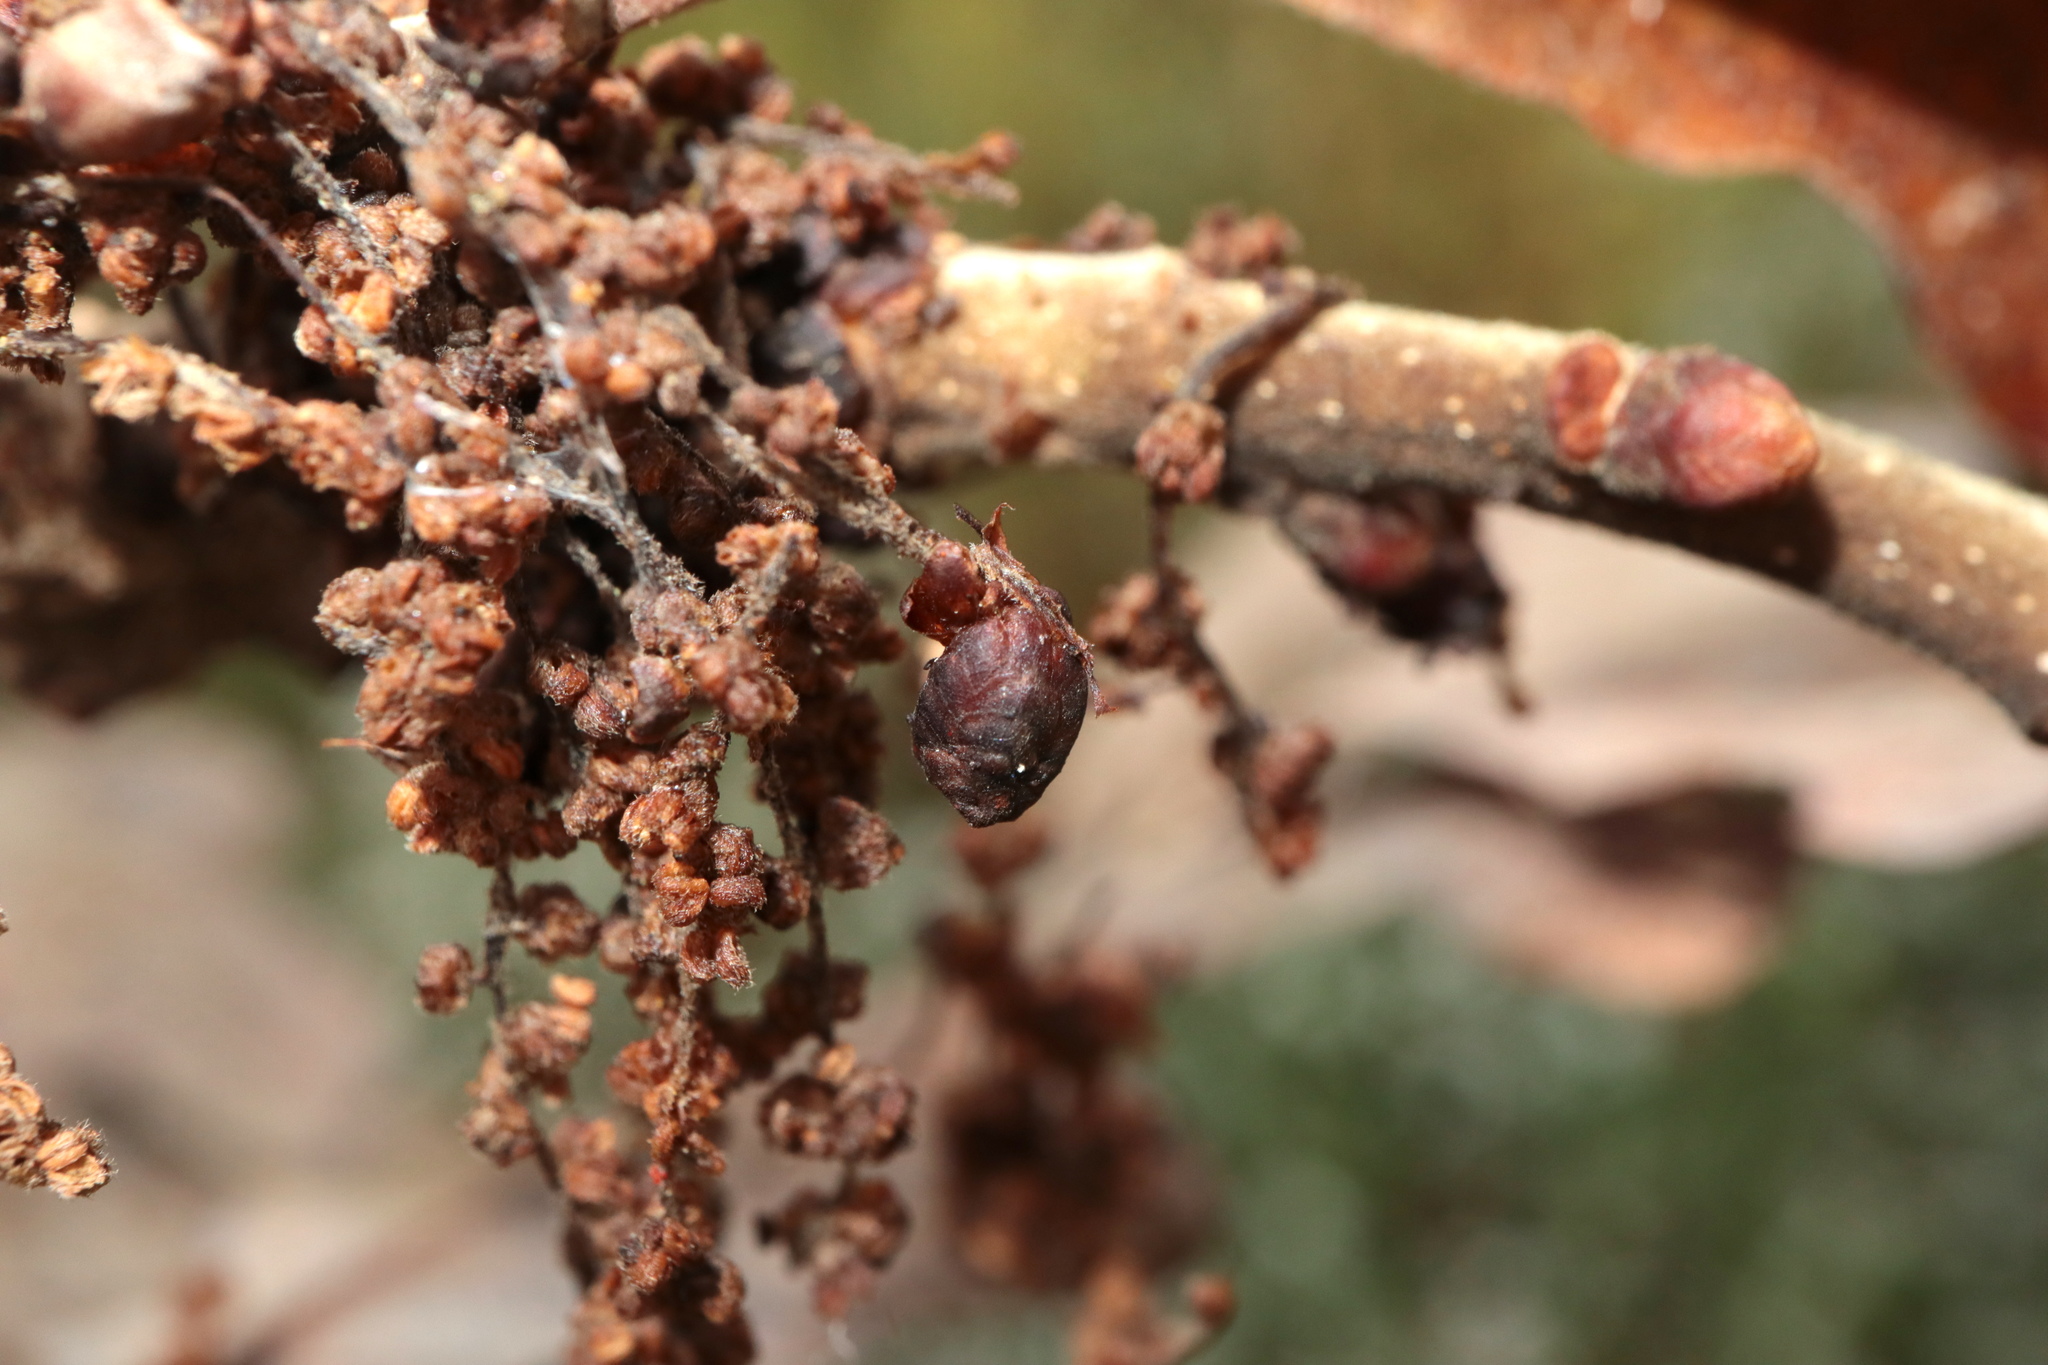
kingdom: Plantae
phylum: Tracheophyta
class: Magnoliopsida
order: Fagales
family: Fagaceae
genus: Quercus
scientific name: Quercus stellata
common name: Post oak
